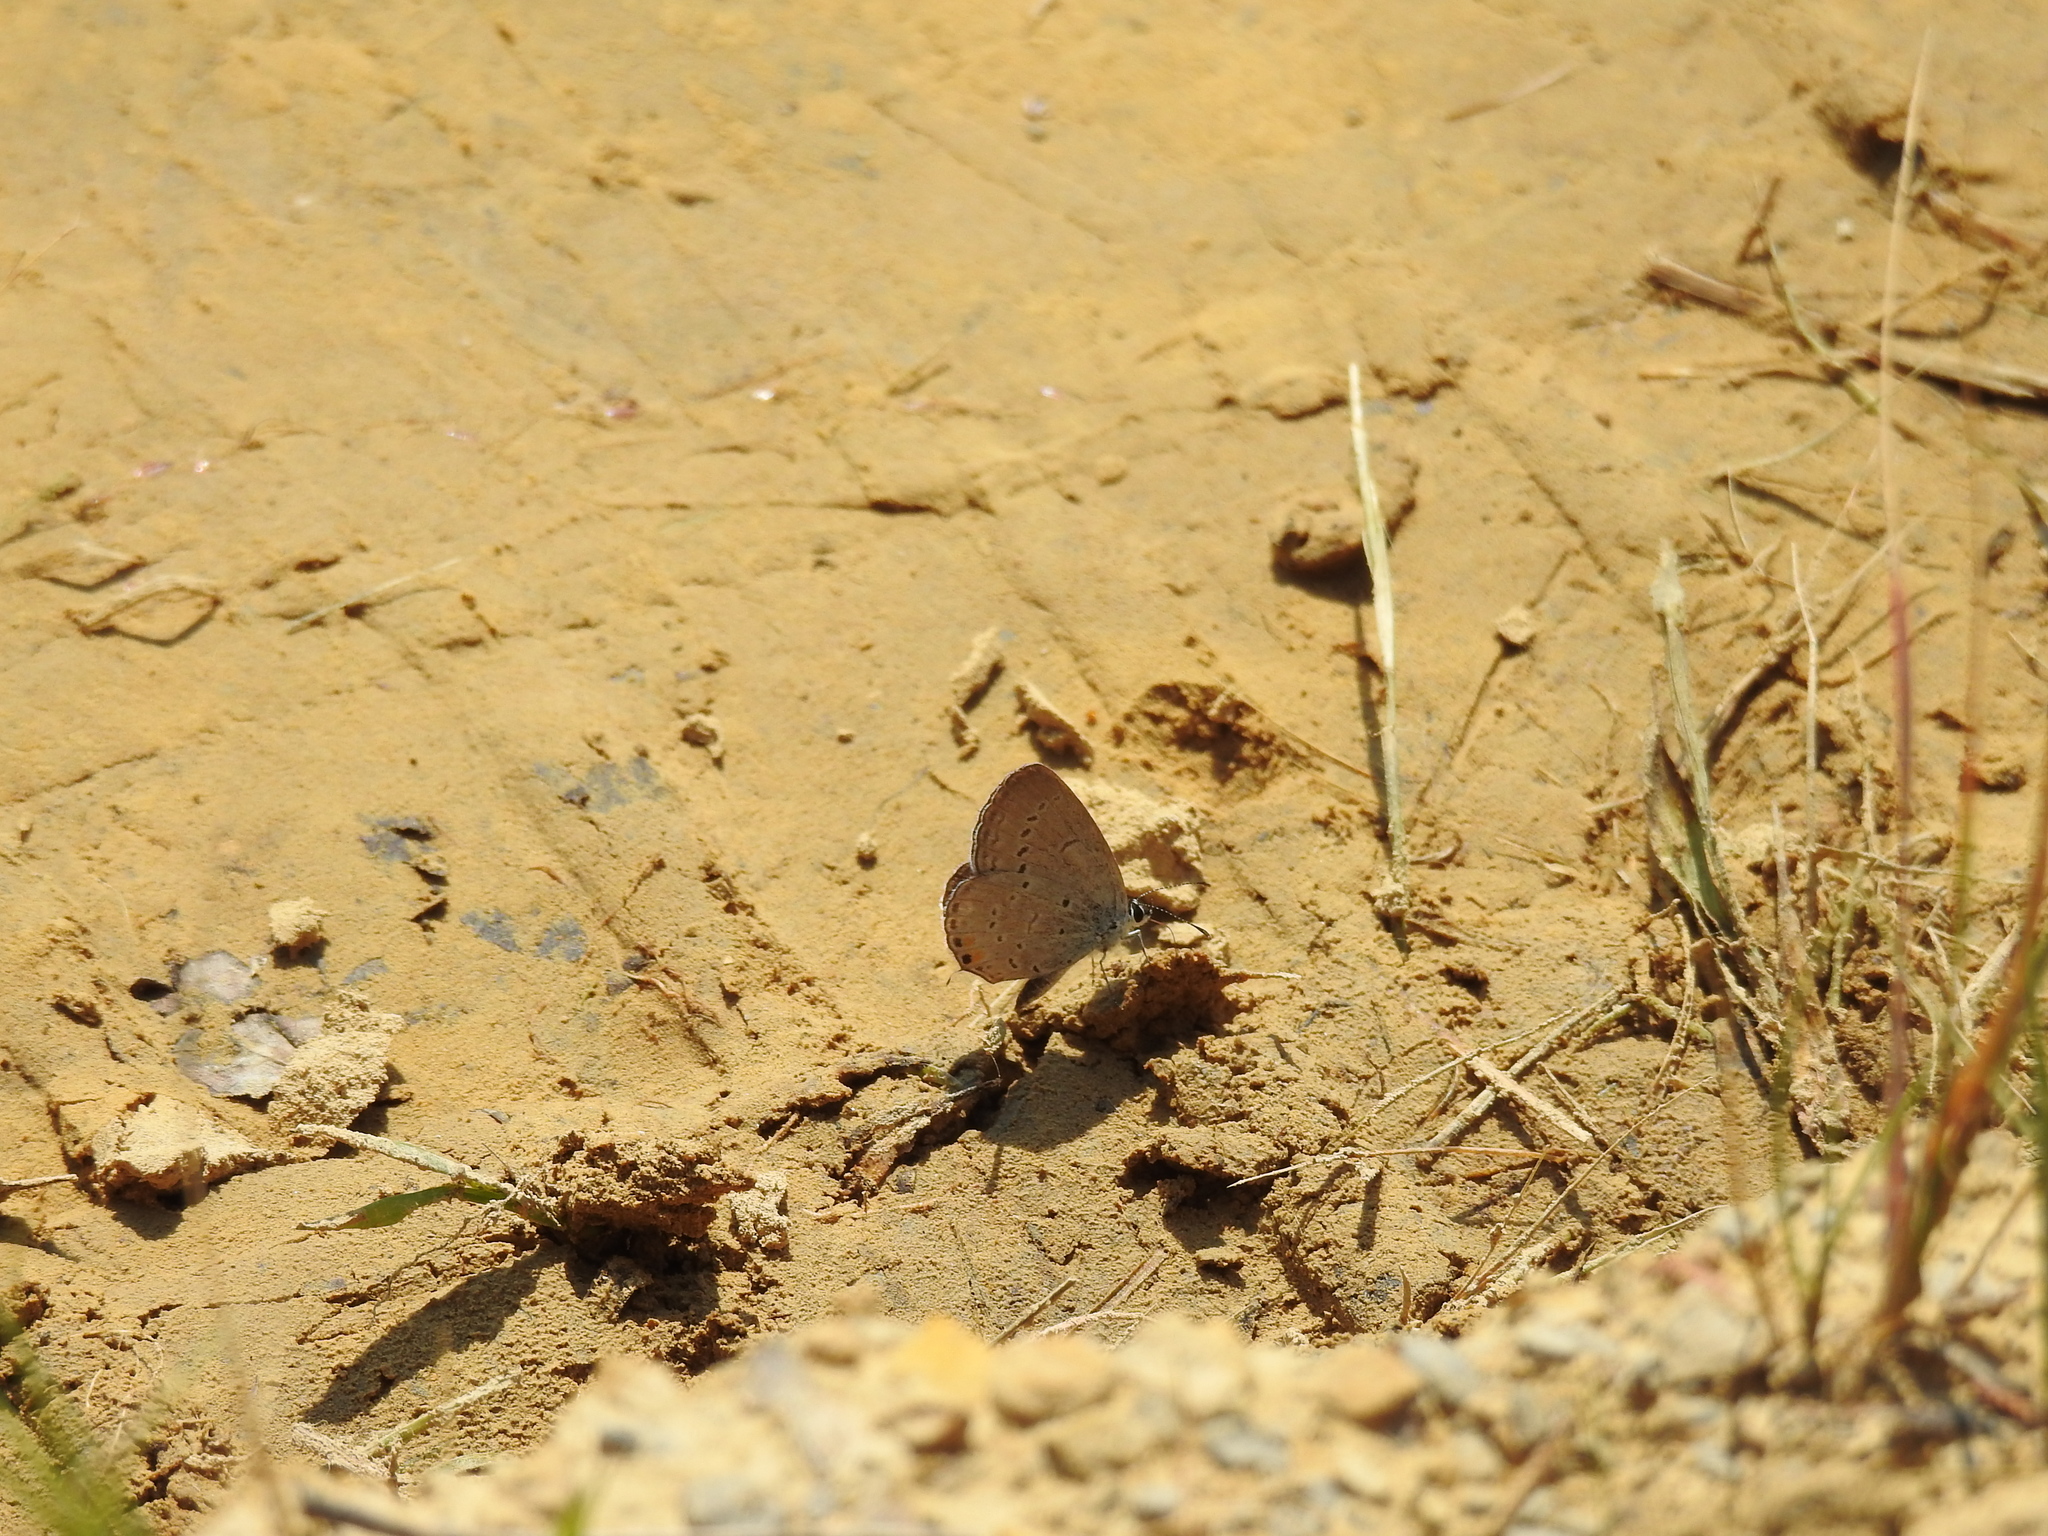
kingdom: Animalia
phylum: Arthropoda
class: Insecta
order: Lepidoptera
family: Lycaenidae
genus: Elkalyce
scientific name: Elkalyce comyntas
